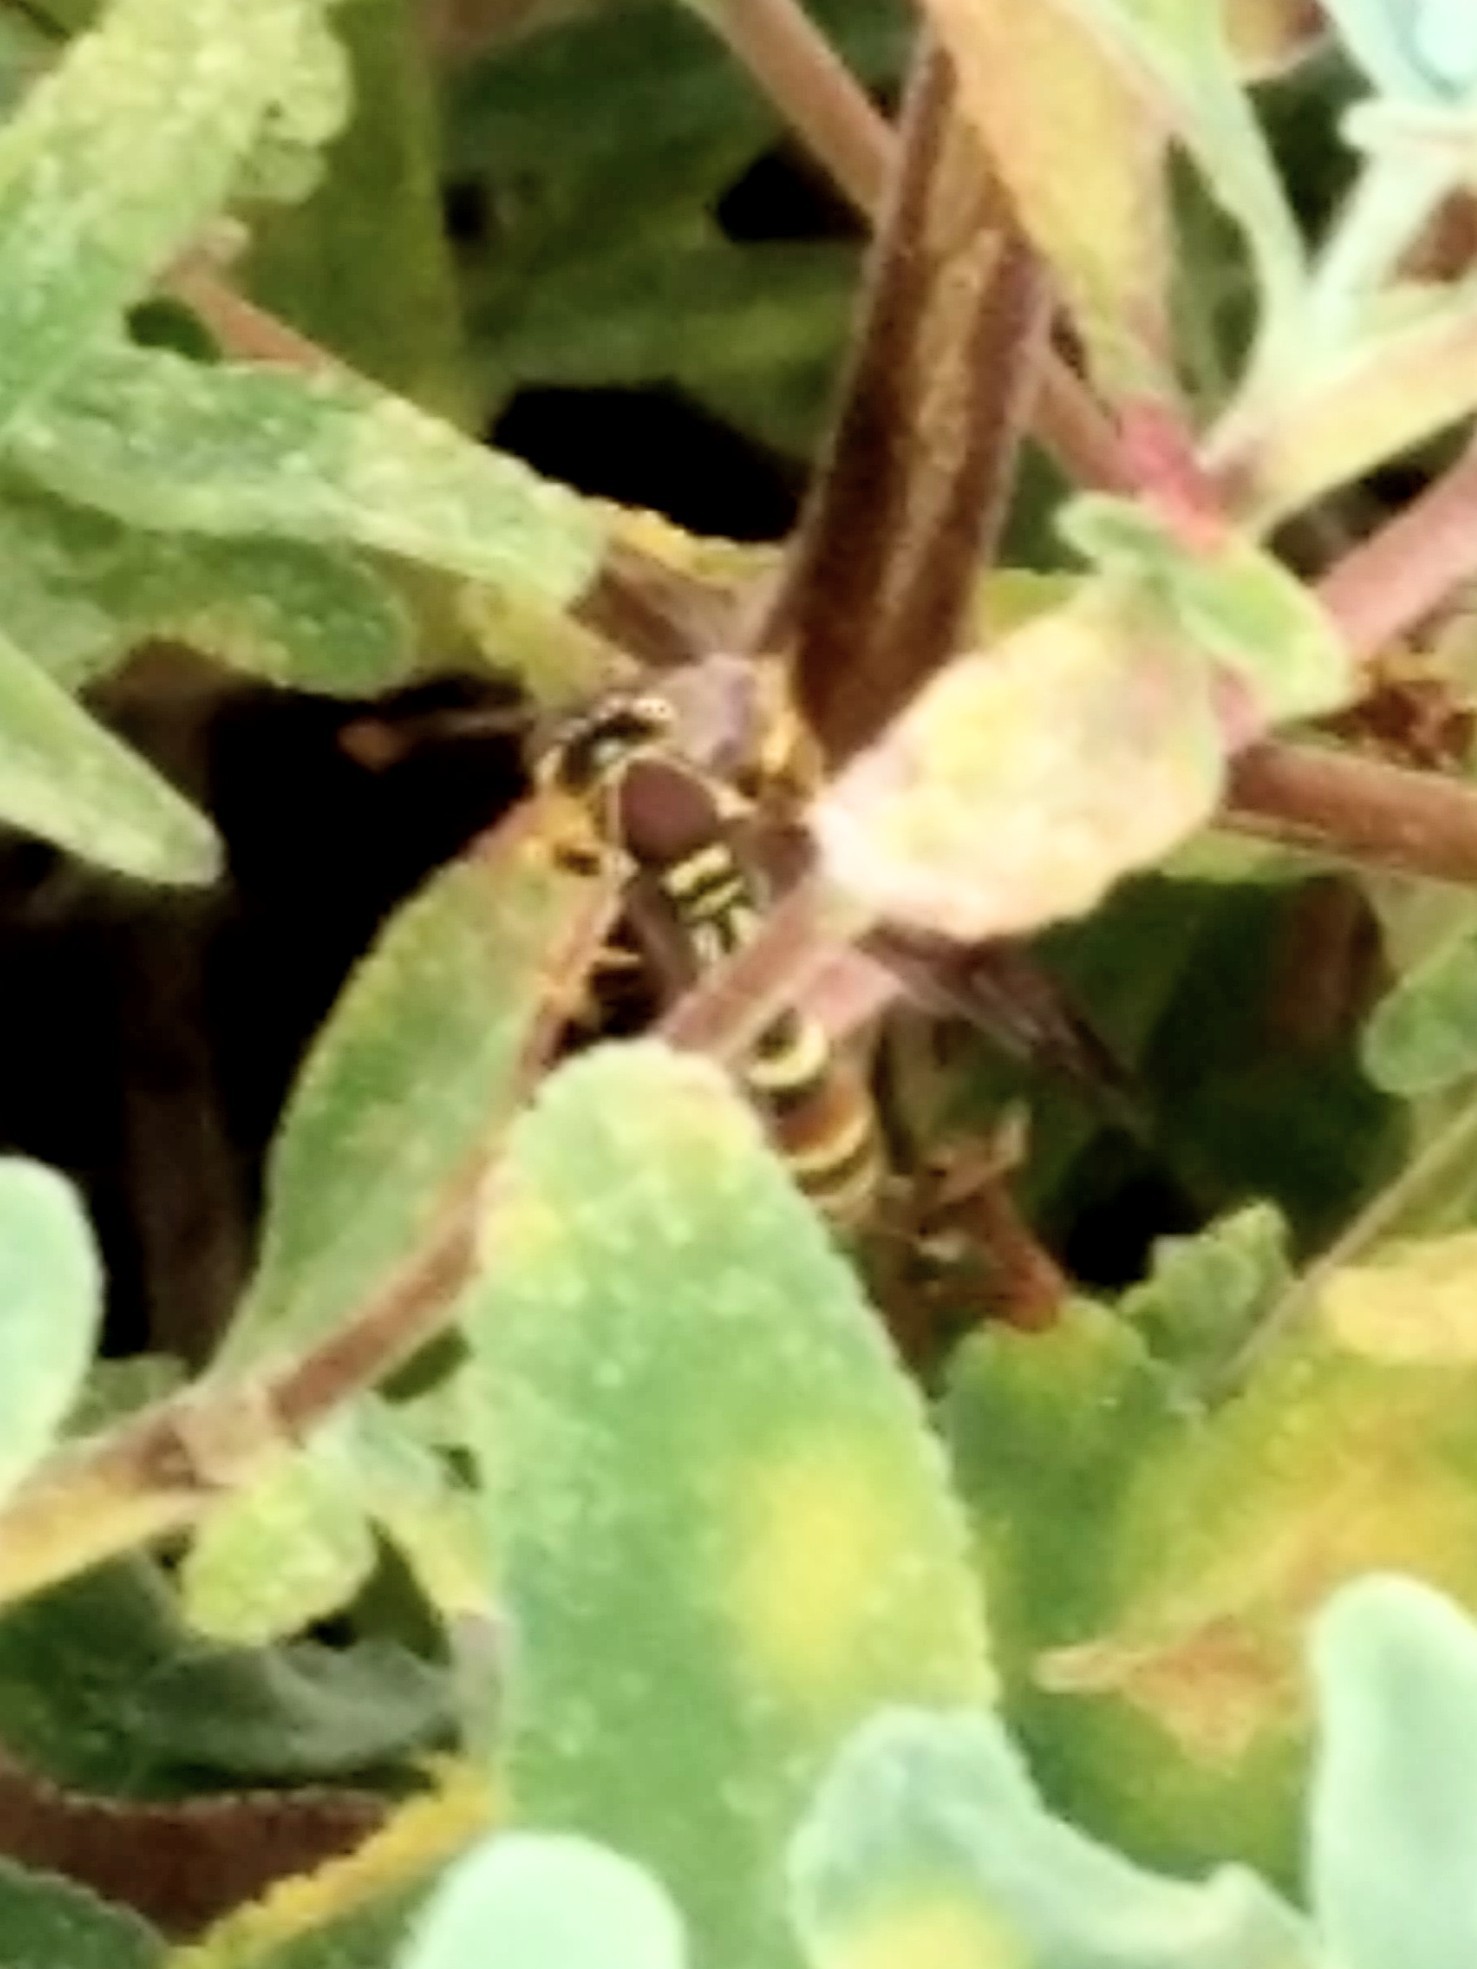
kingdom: Animalia
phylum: Arthropoda
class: Insecta
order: Hymenoptera
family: Eumenidae
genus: Polistes
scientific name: Polistes exclamans
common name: Paper wasp
